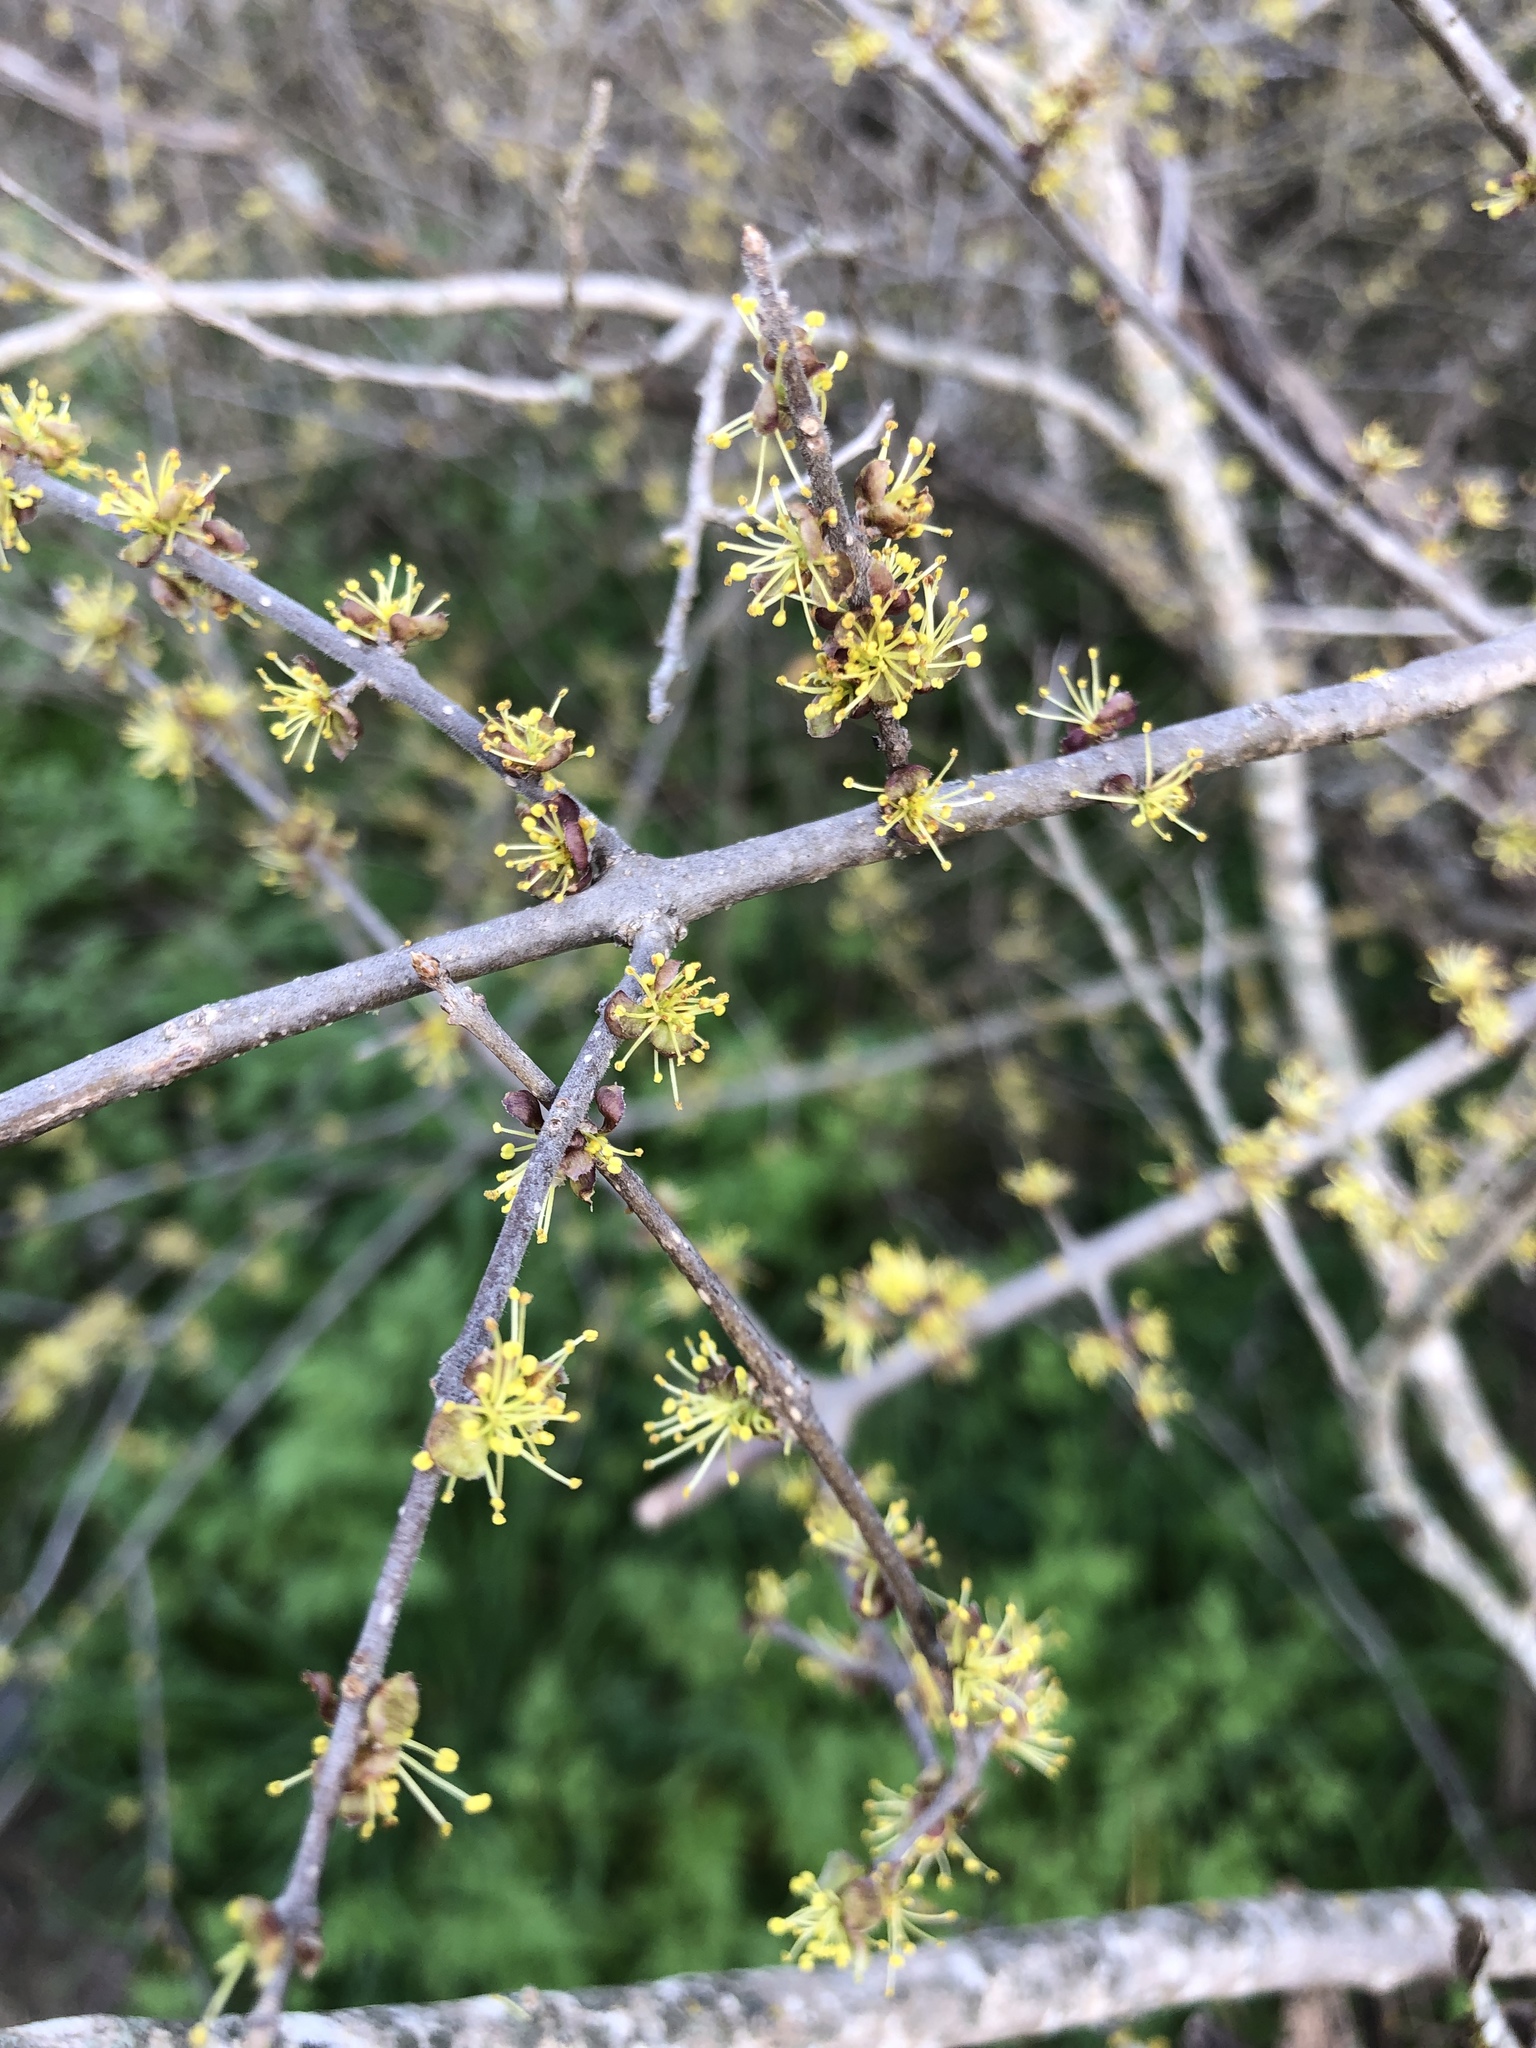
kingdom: Plantae
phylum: Tracheophyta
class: Magnoliopsida
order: Lamiales
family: Oleaceae
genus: Forestiera
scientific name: Forestiera pubescens
